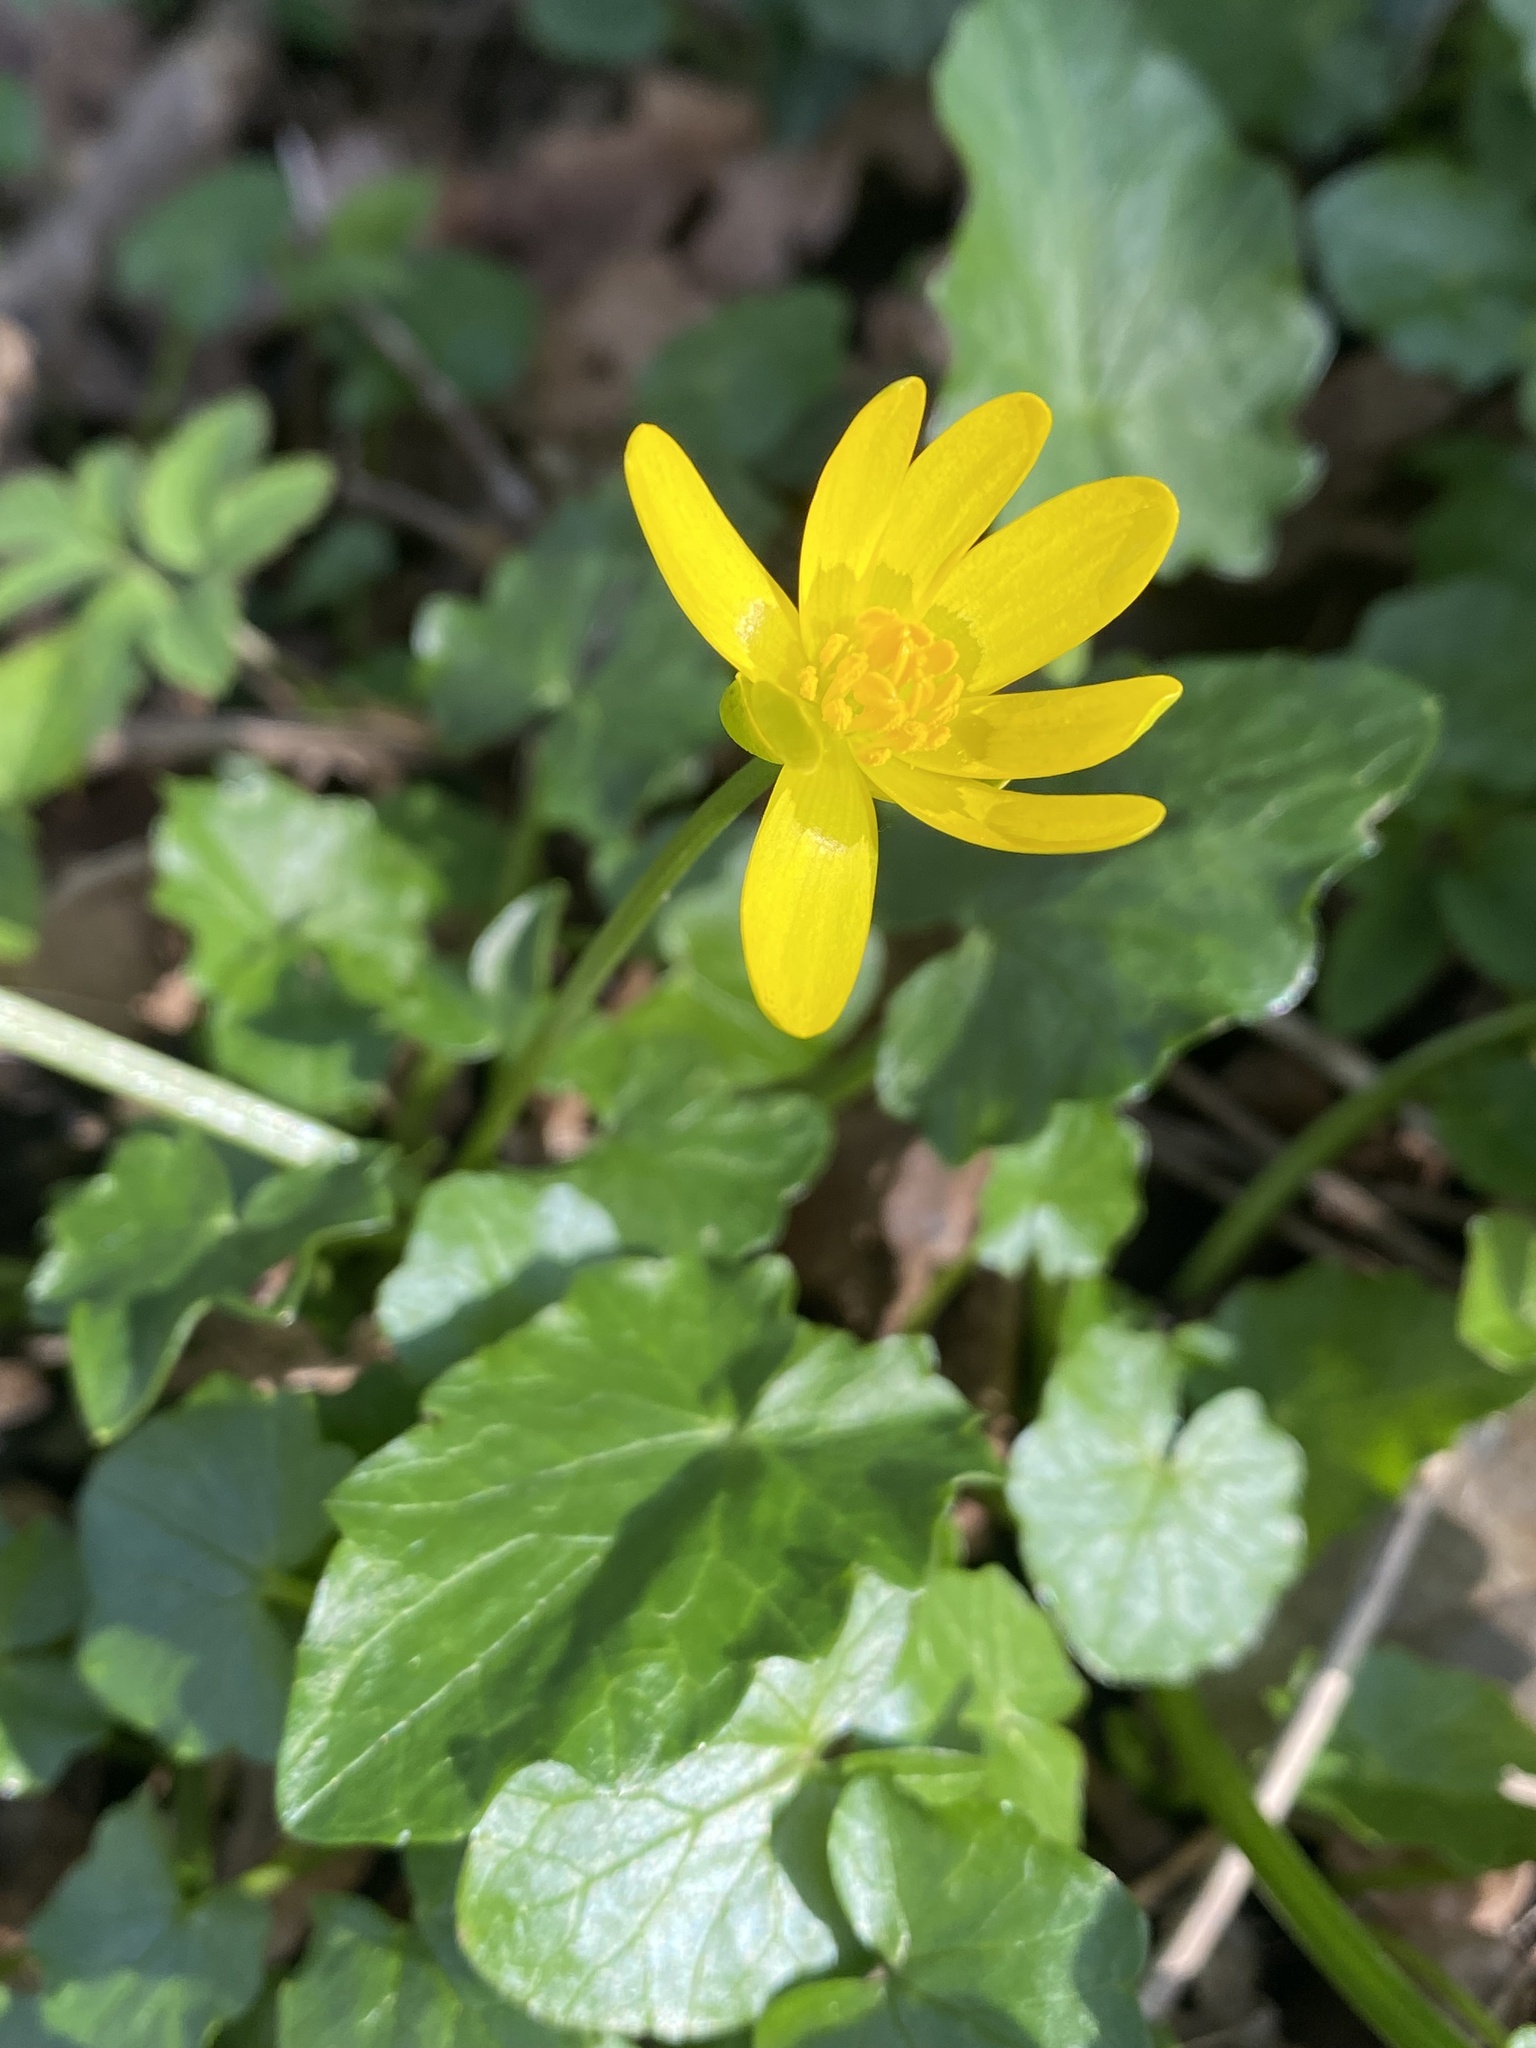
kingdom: Plantae
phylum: Tracheophyta
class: Magnoliopsida
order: Ranunculales
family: Ranunculaceae
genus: Ficaria
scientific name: Ficaria verna
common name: Lesser celandine
